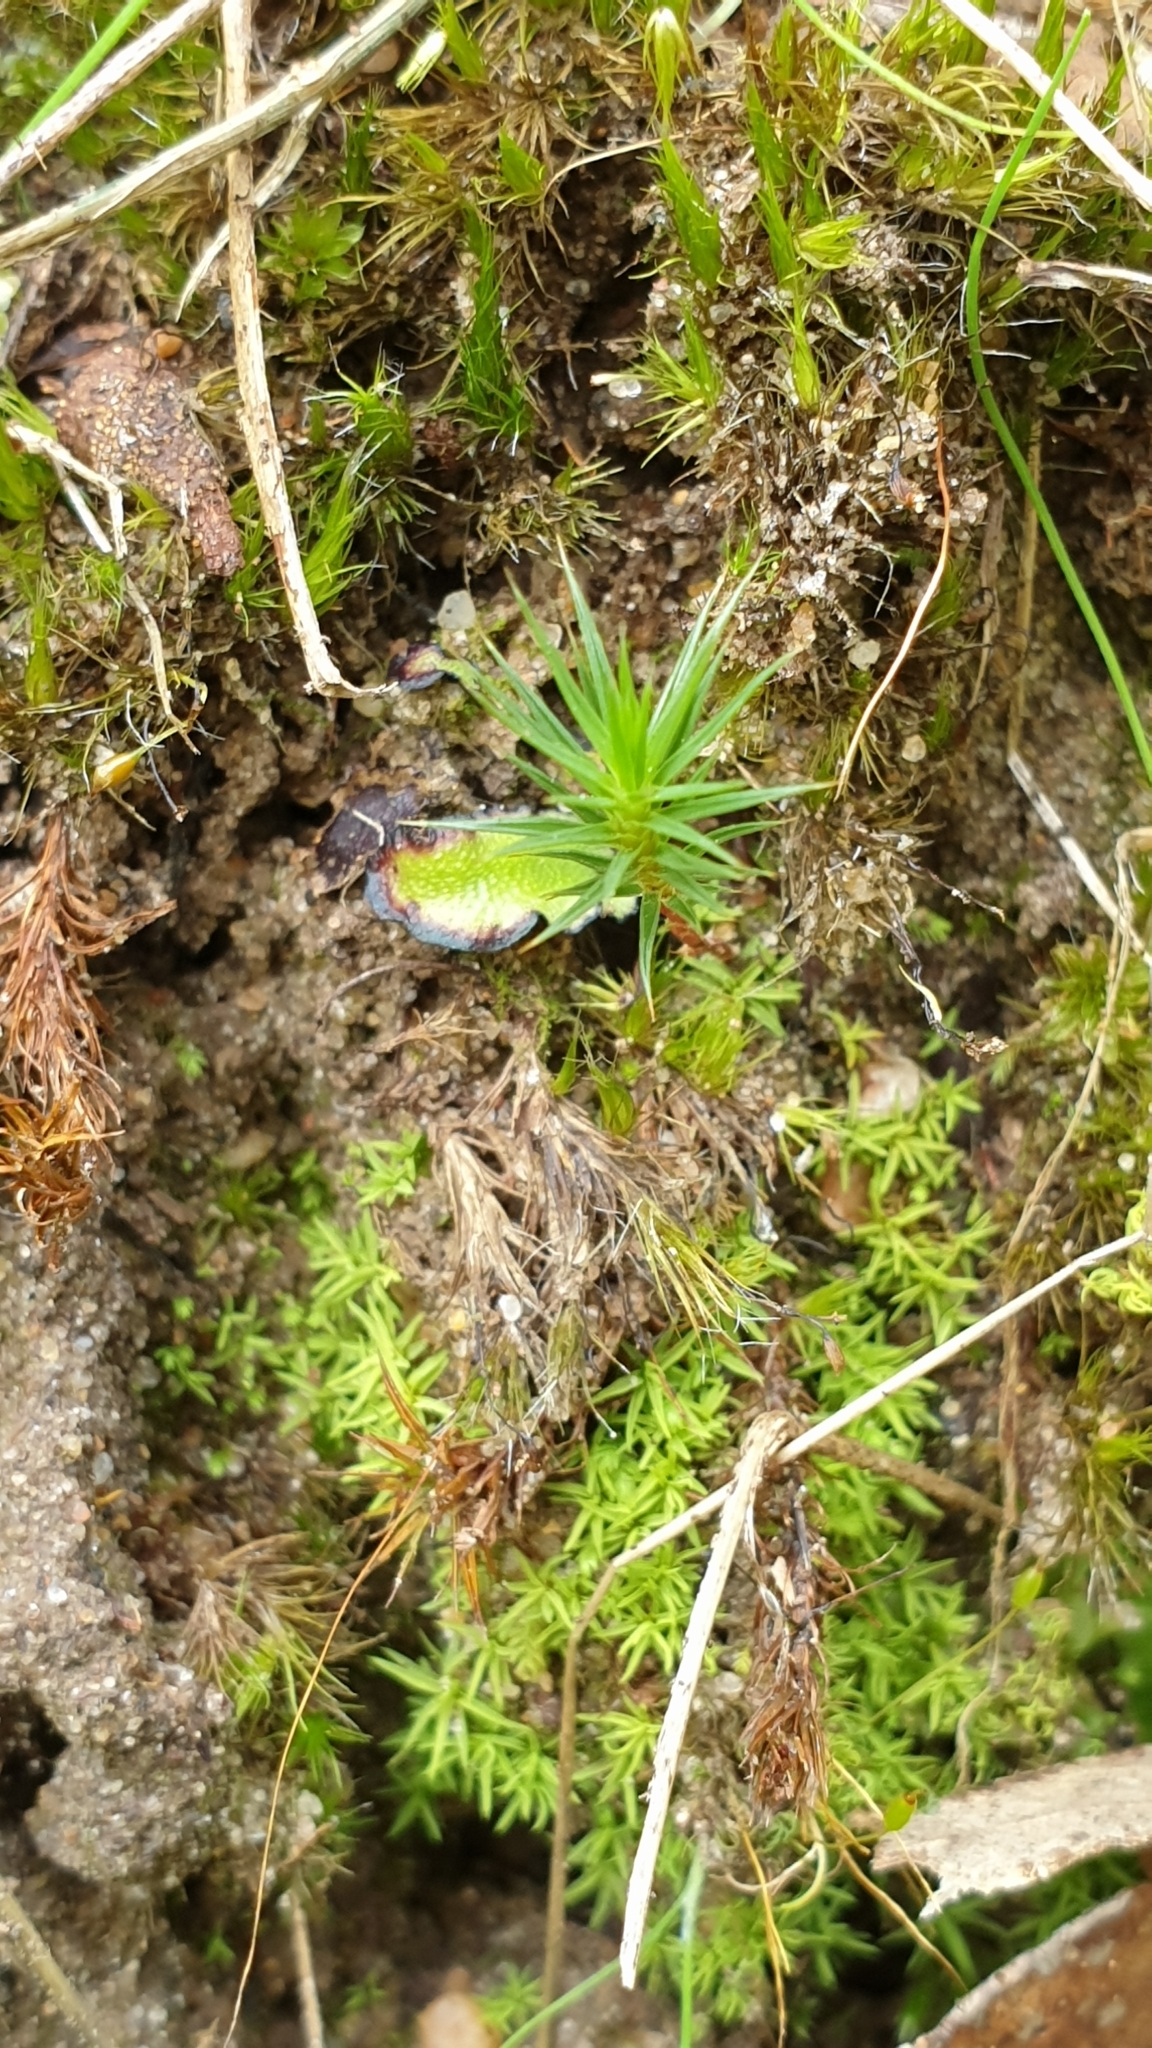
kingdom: Plantae
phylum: Bryophyta
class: Polytrichopsida
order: Polytrichales
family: Polytrichaceae
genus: Polytrichum
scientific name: Polytrichum juniperinum
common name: Juniper haircap moss
